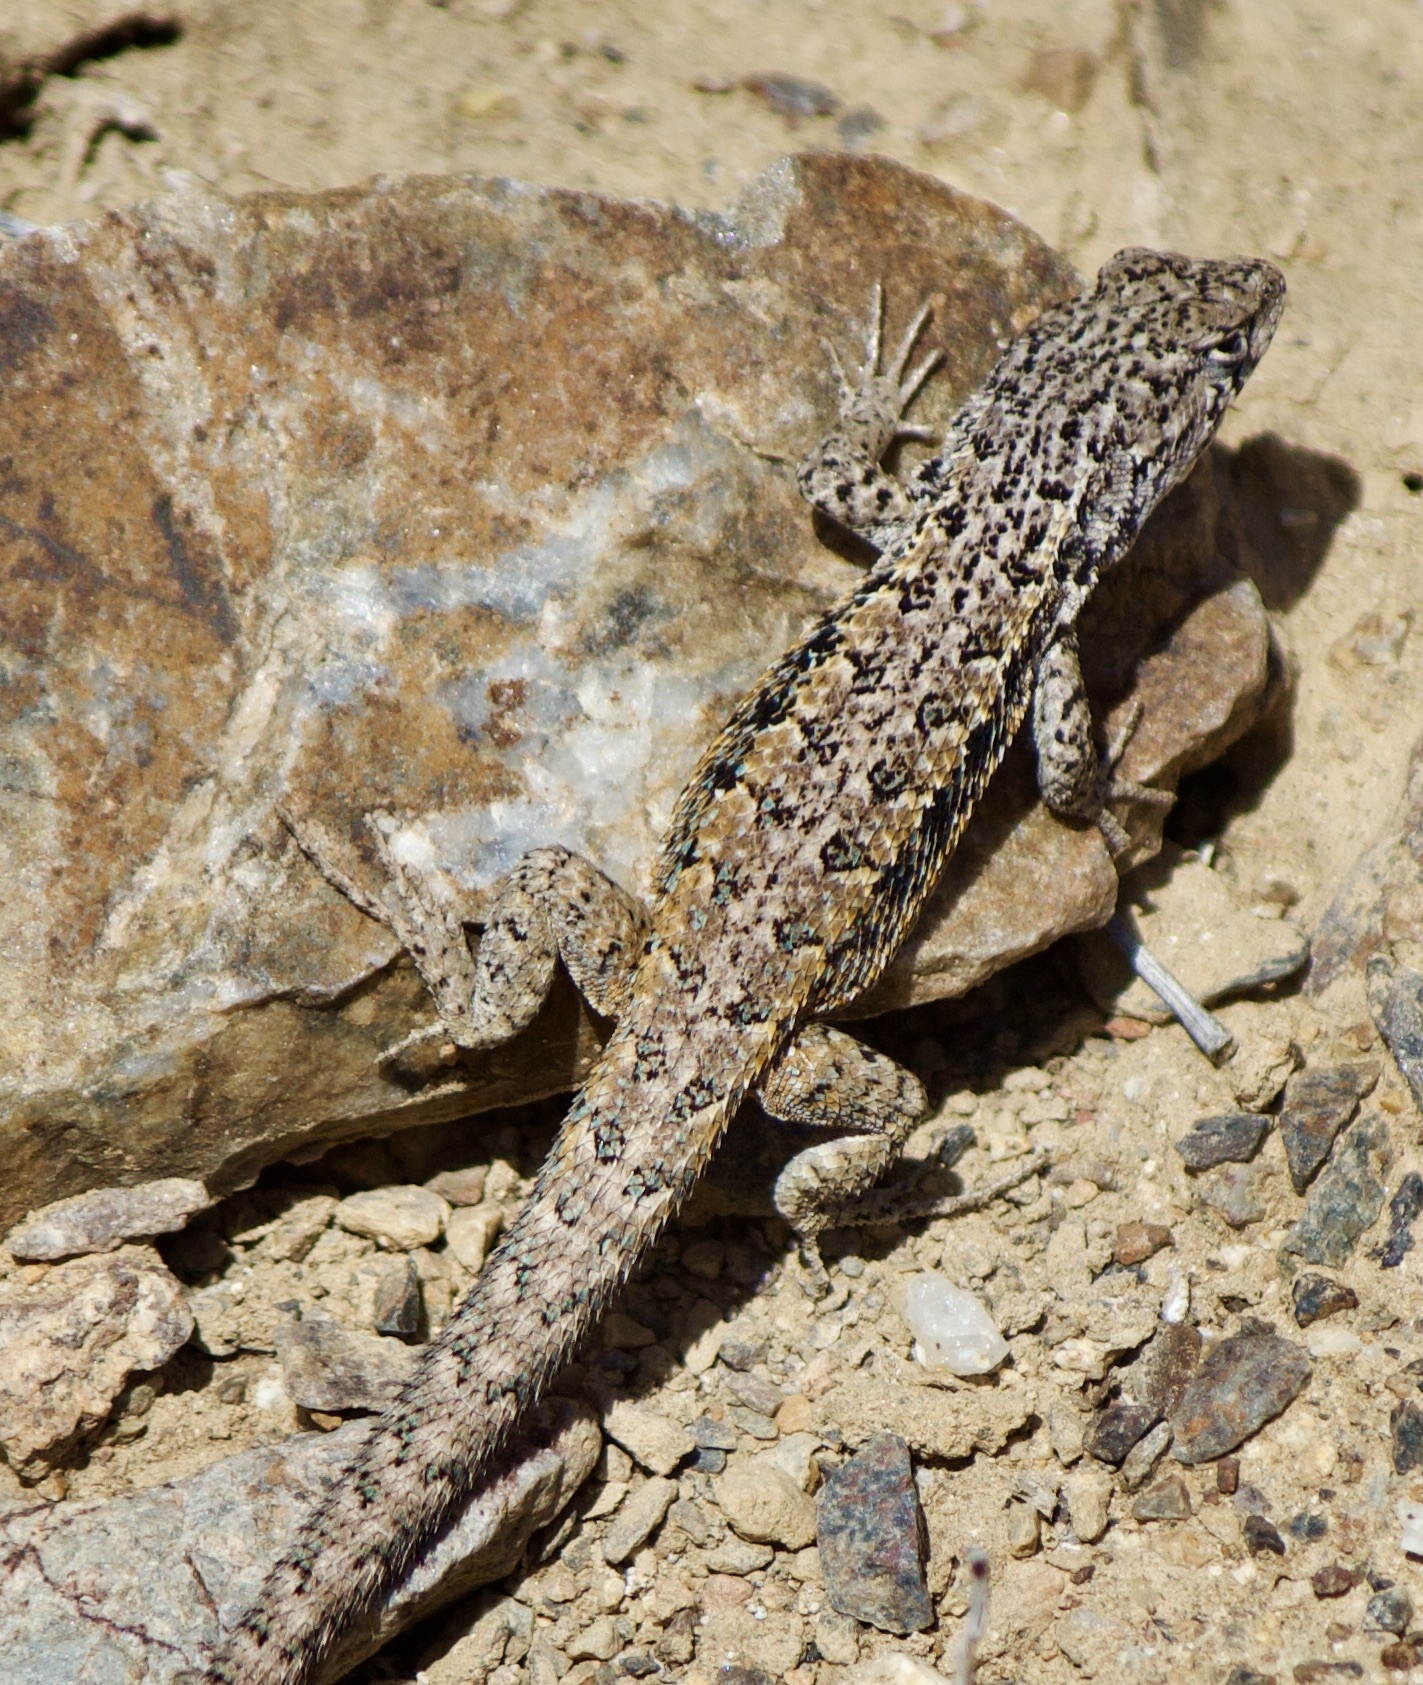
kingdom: Animalia
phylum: Chordata
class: Squamata
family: Liolaemidae
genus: Liolaemus
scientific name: Liolaemus platei
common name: Braided tree iguana
